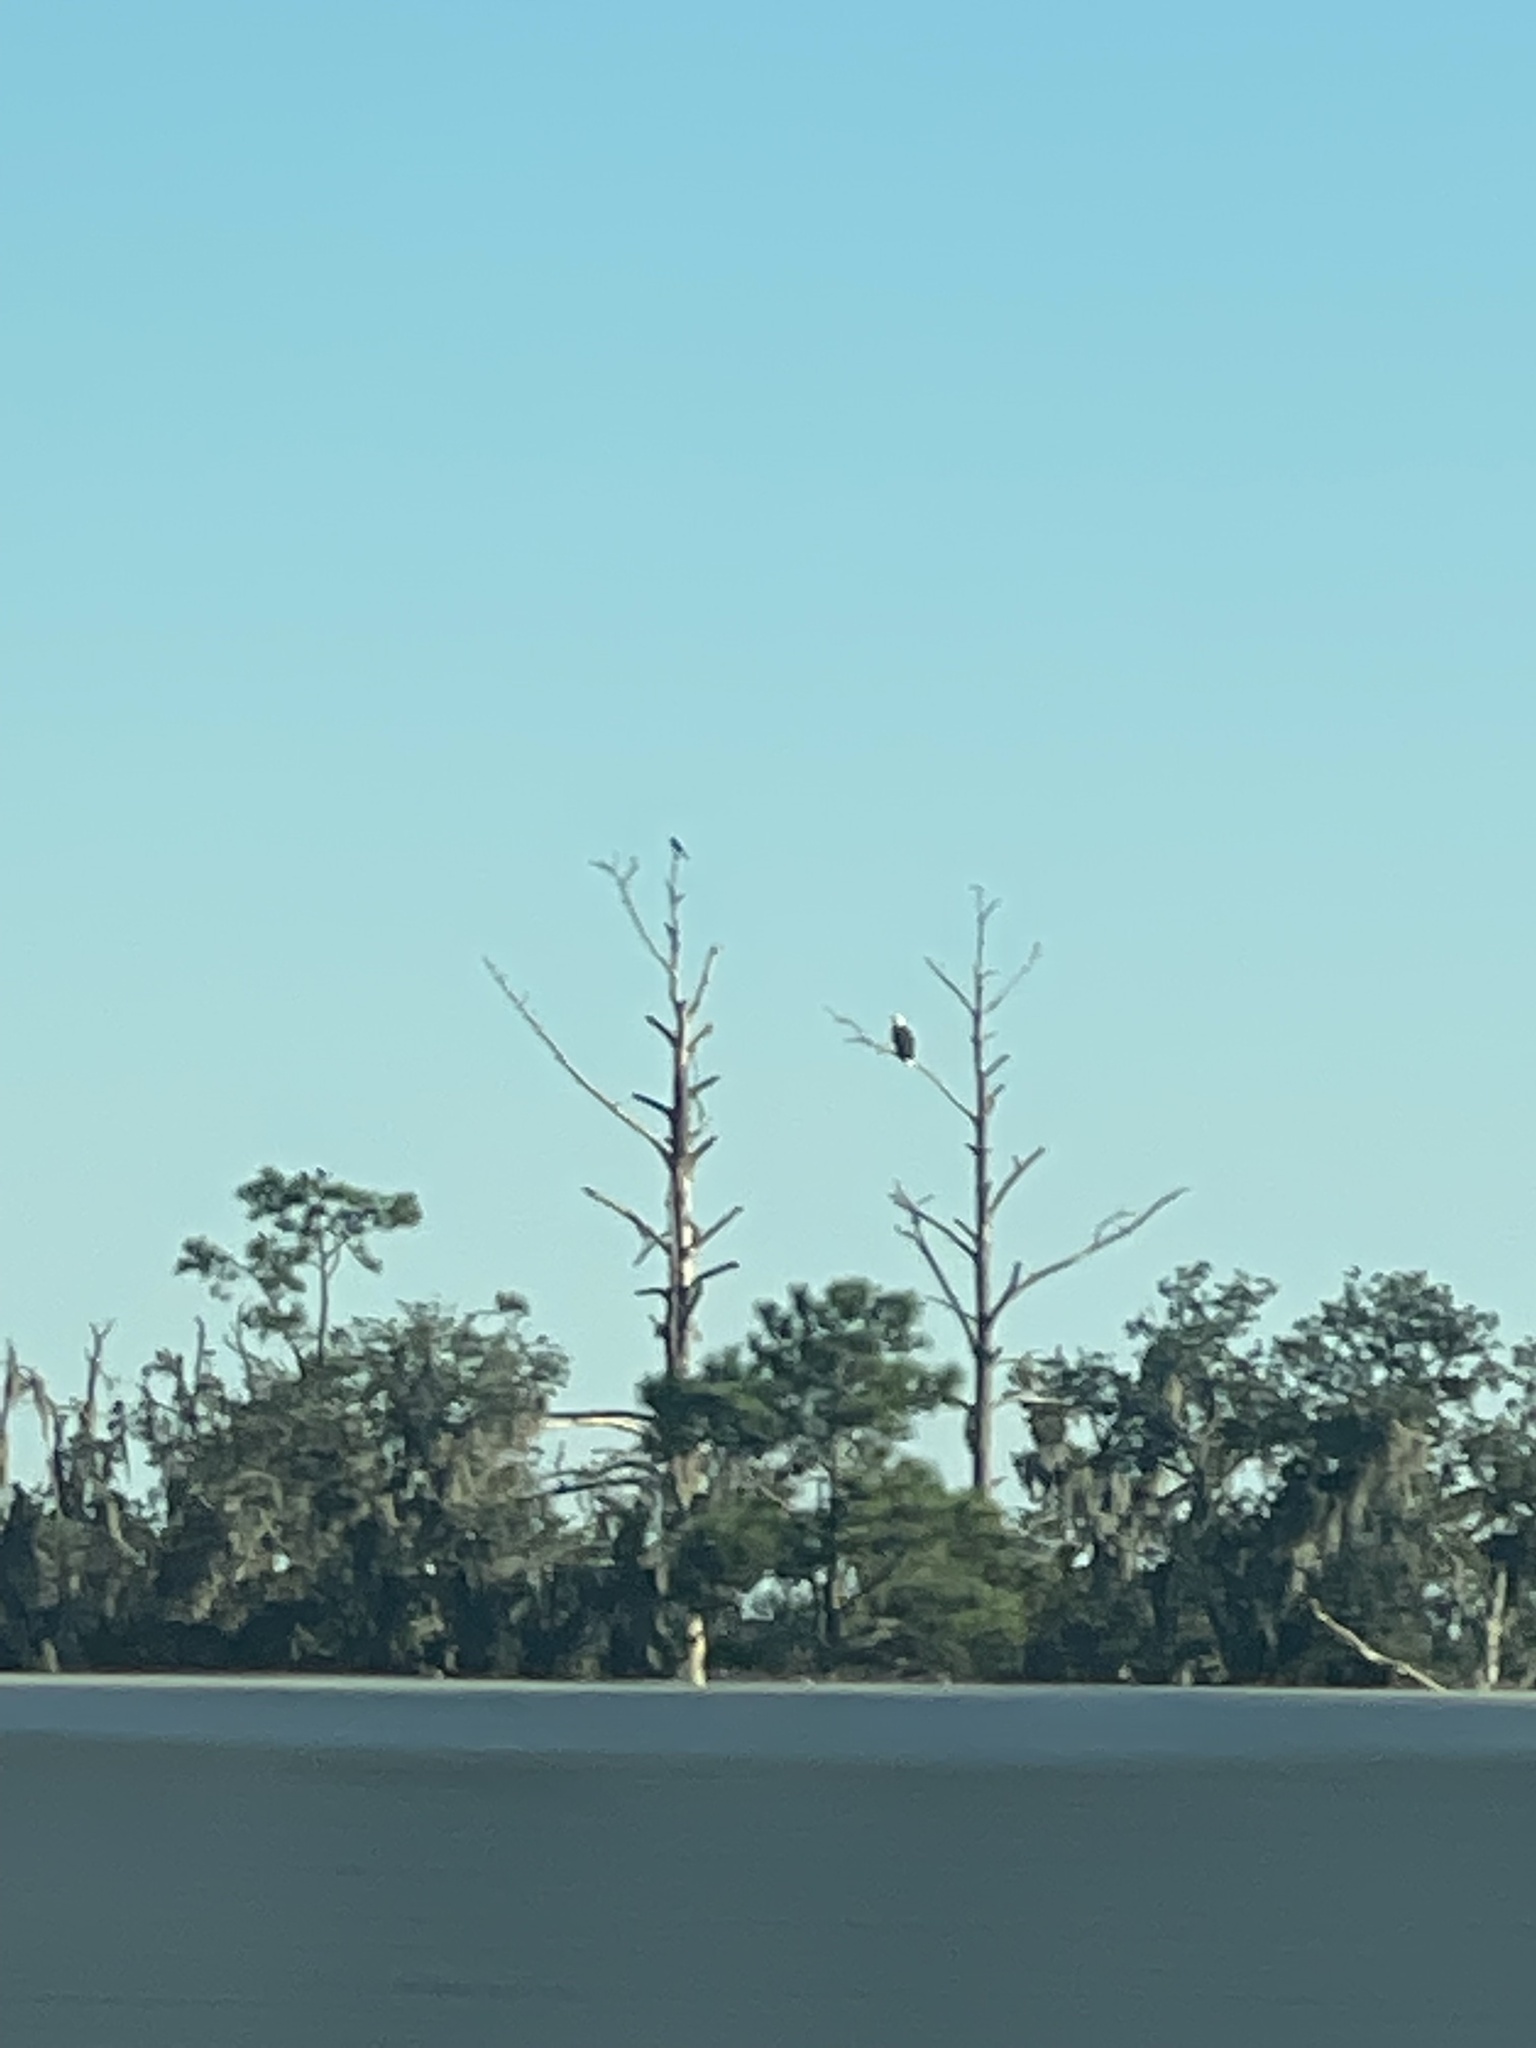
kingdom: Animalia
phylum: Chordata
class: Aves
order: Accipitriformes
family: Accipitridae
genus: Haliaeetus
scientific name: Haliaeetus leucocephalus
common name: Bald eagle
